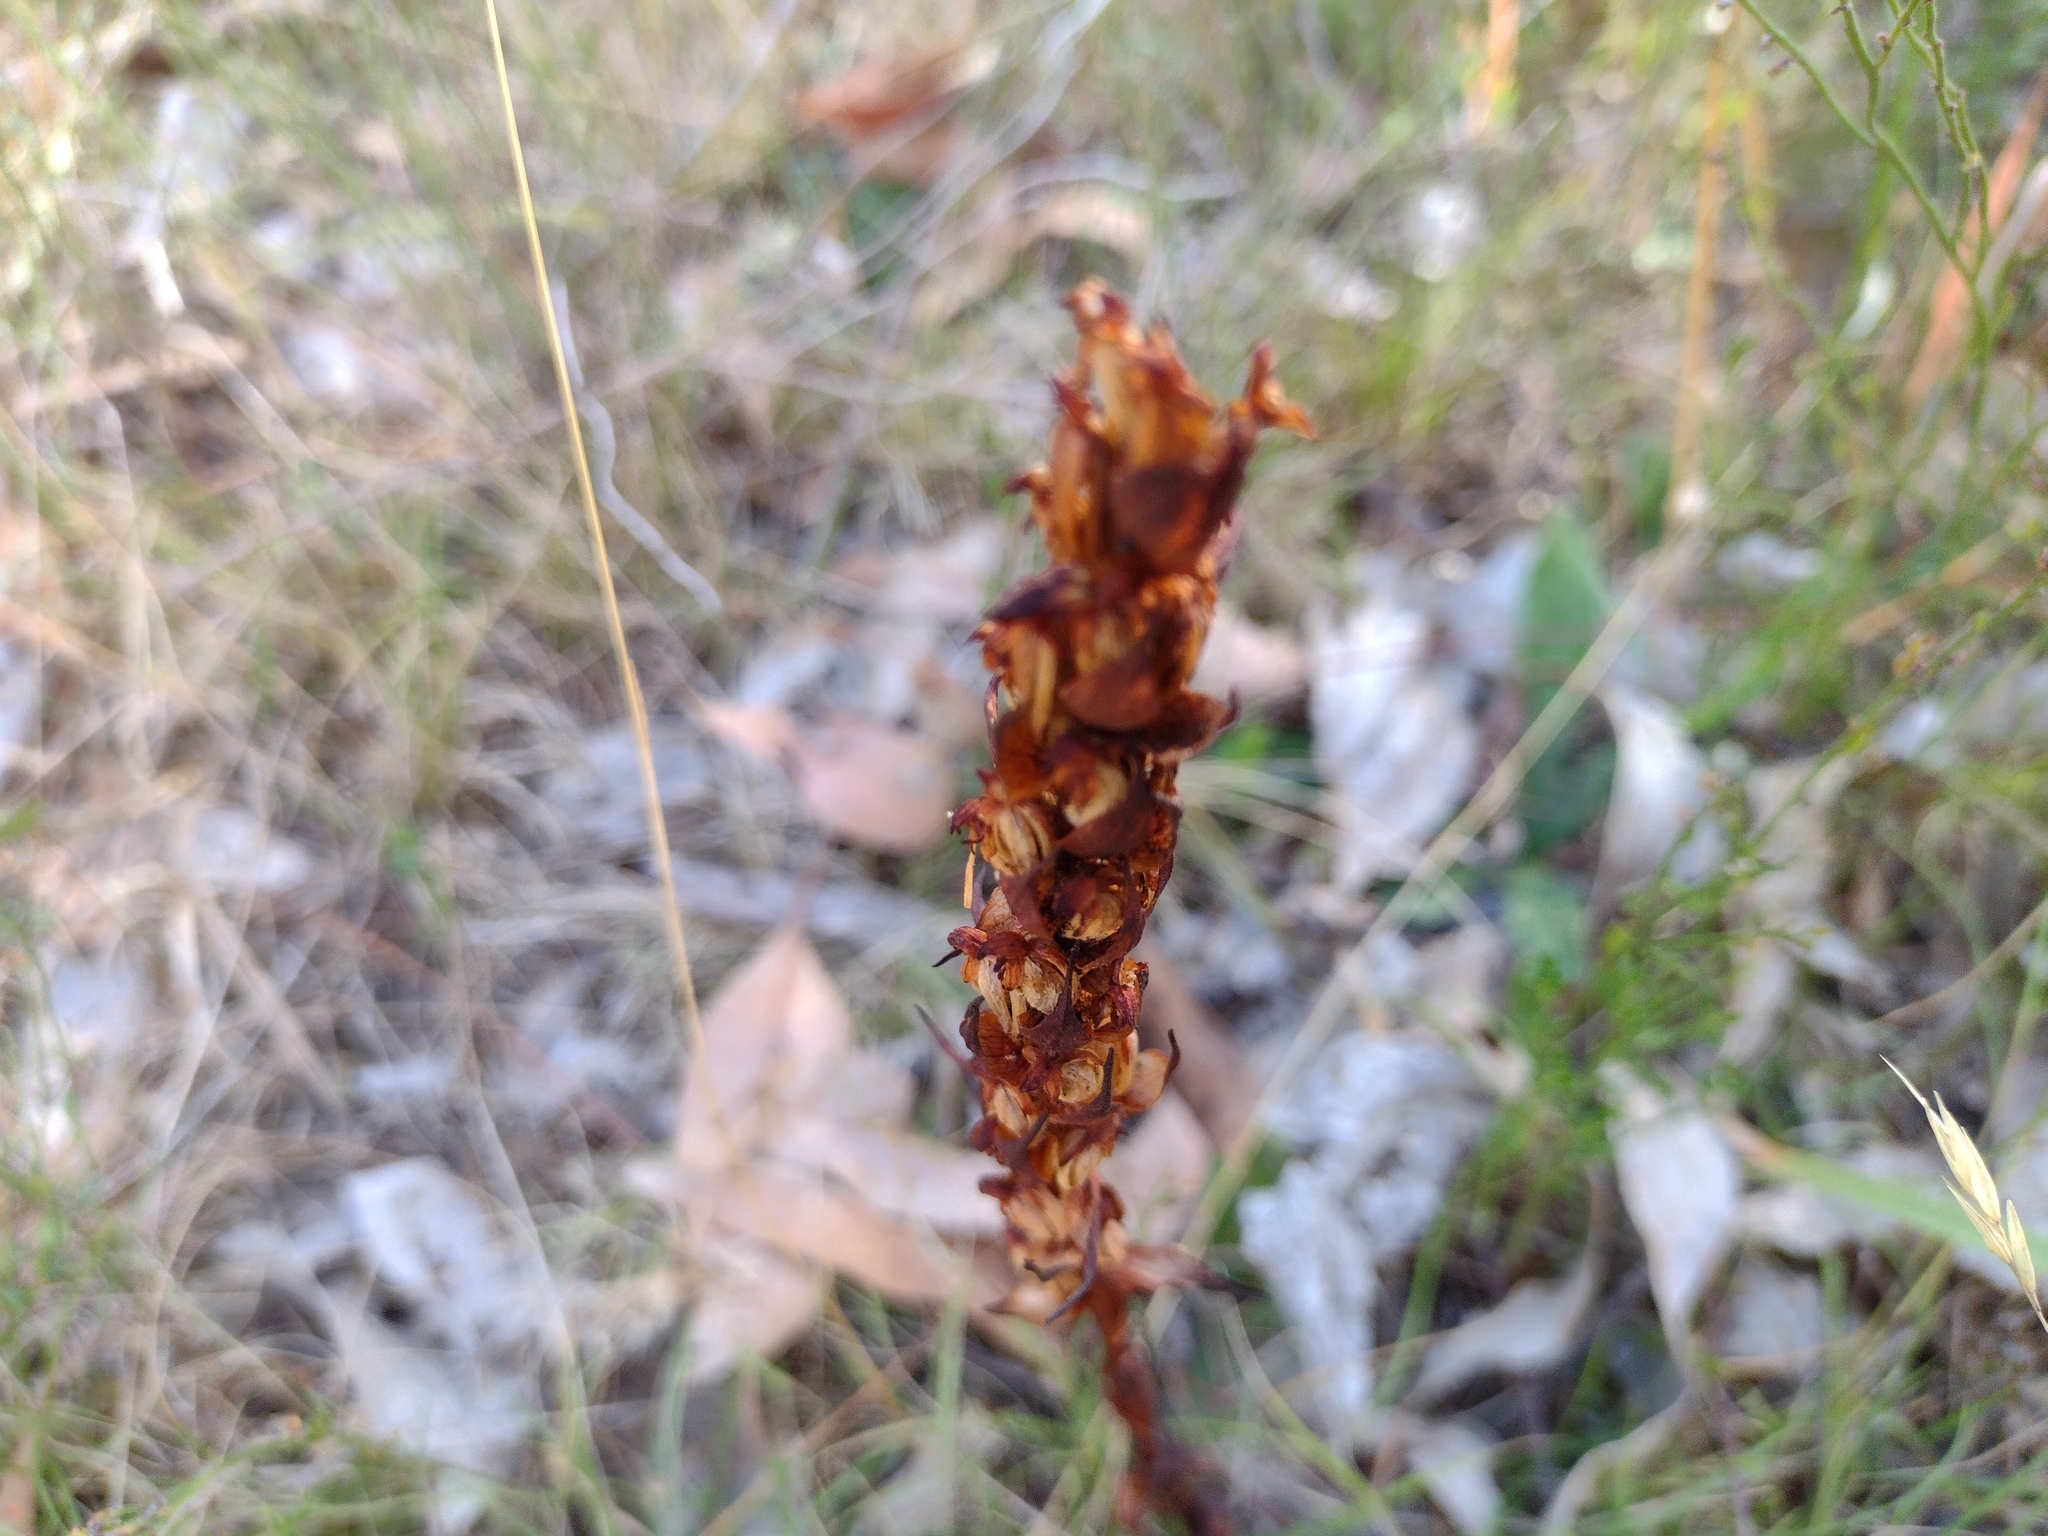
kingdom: Plantae
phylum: Tracheophyta
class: Liliopsida
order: Asparagales
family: Orchidaceae
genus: Disa
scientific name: Disa bracteata
